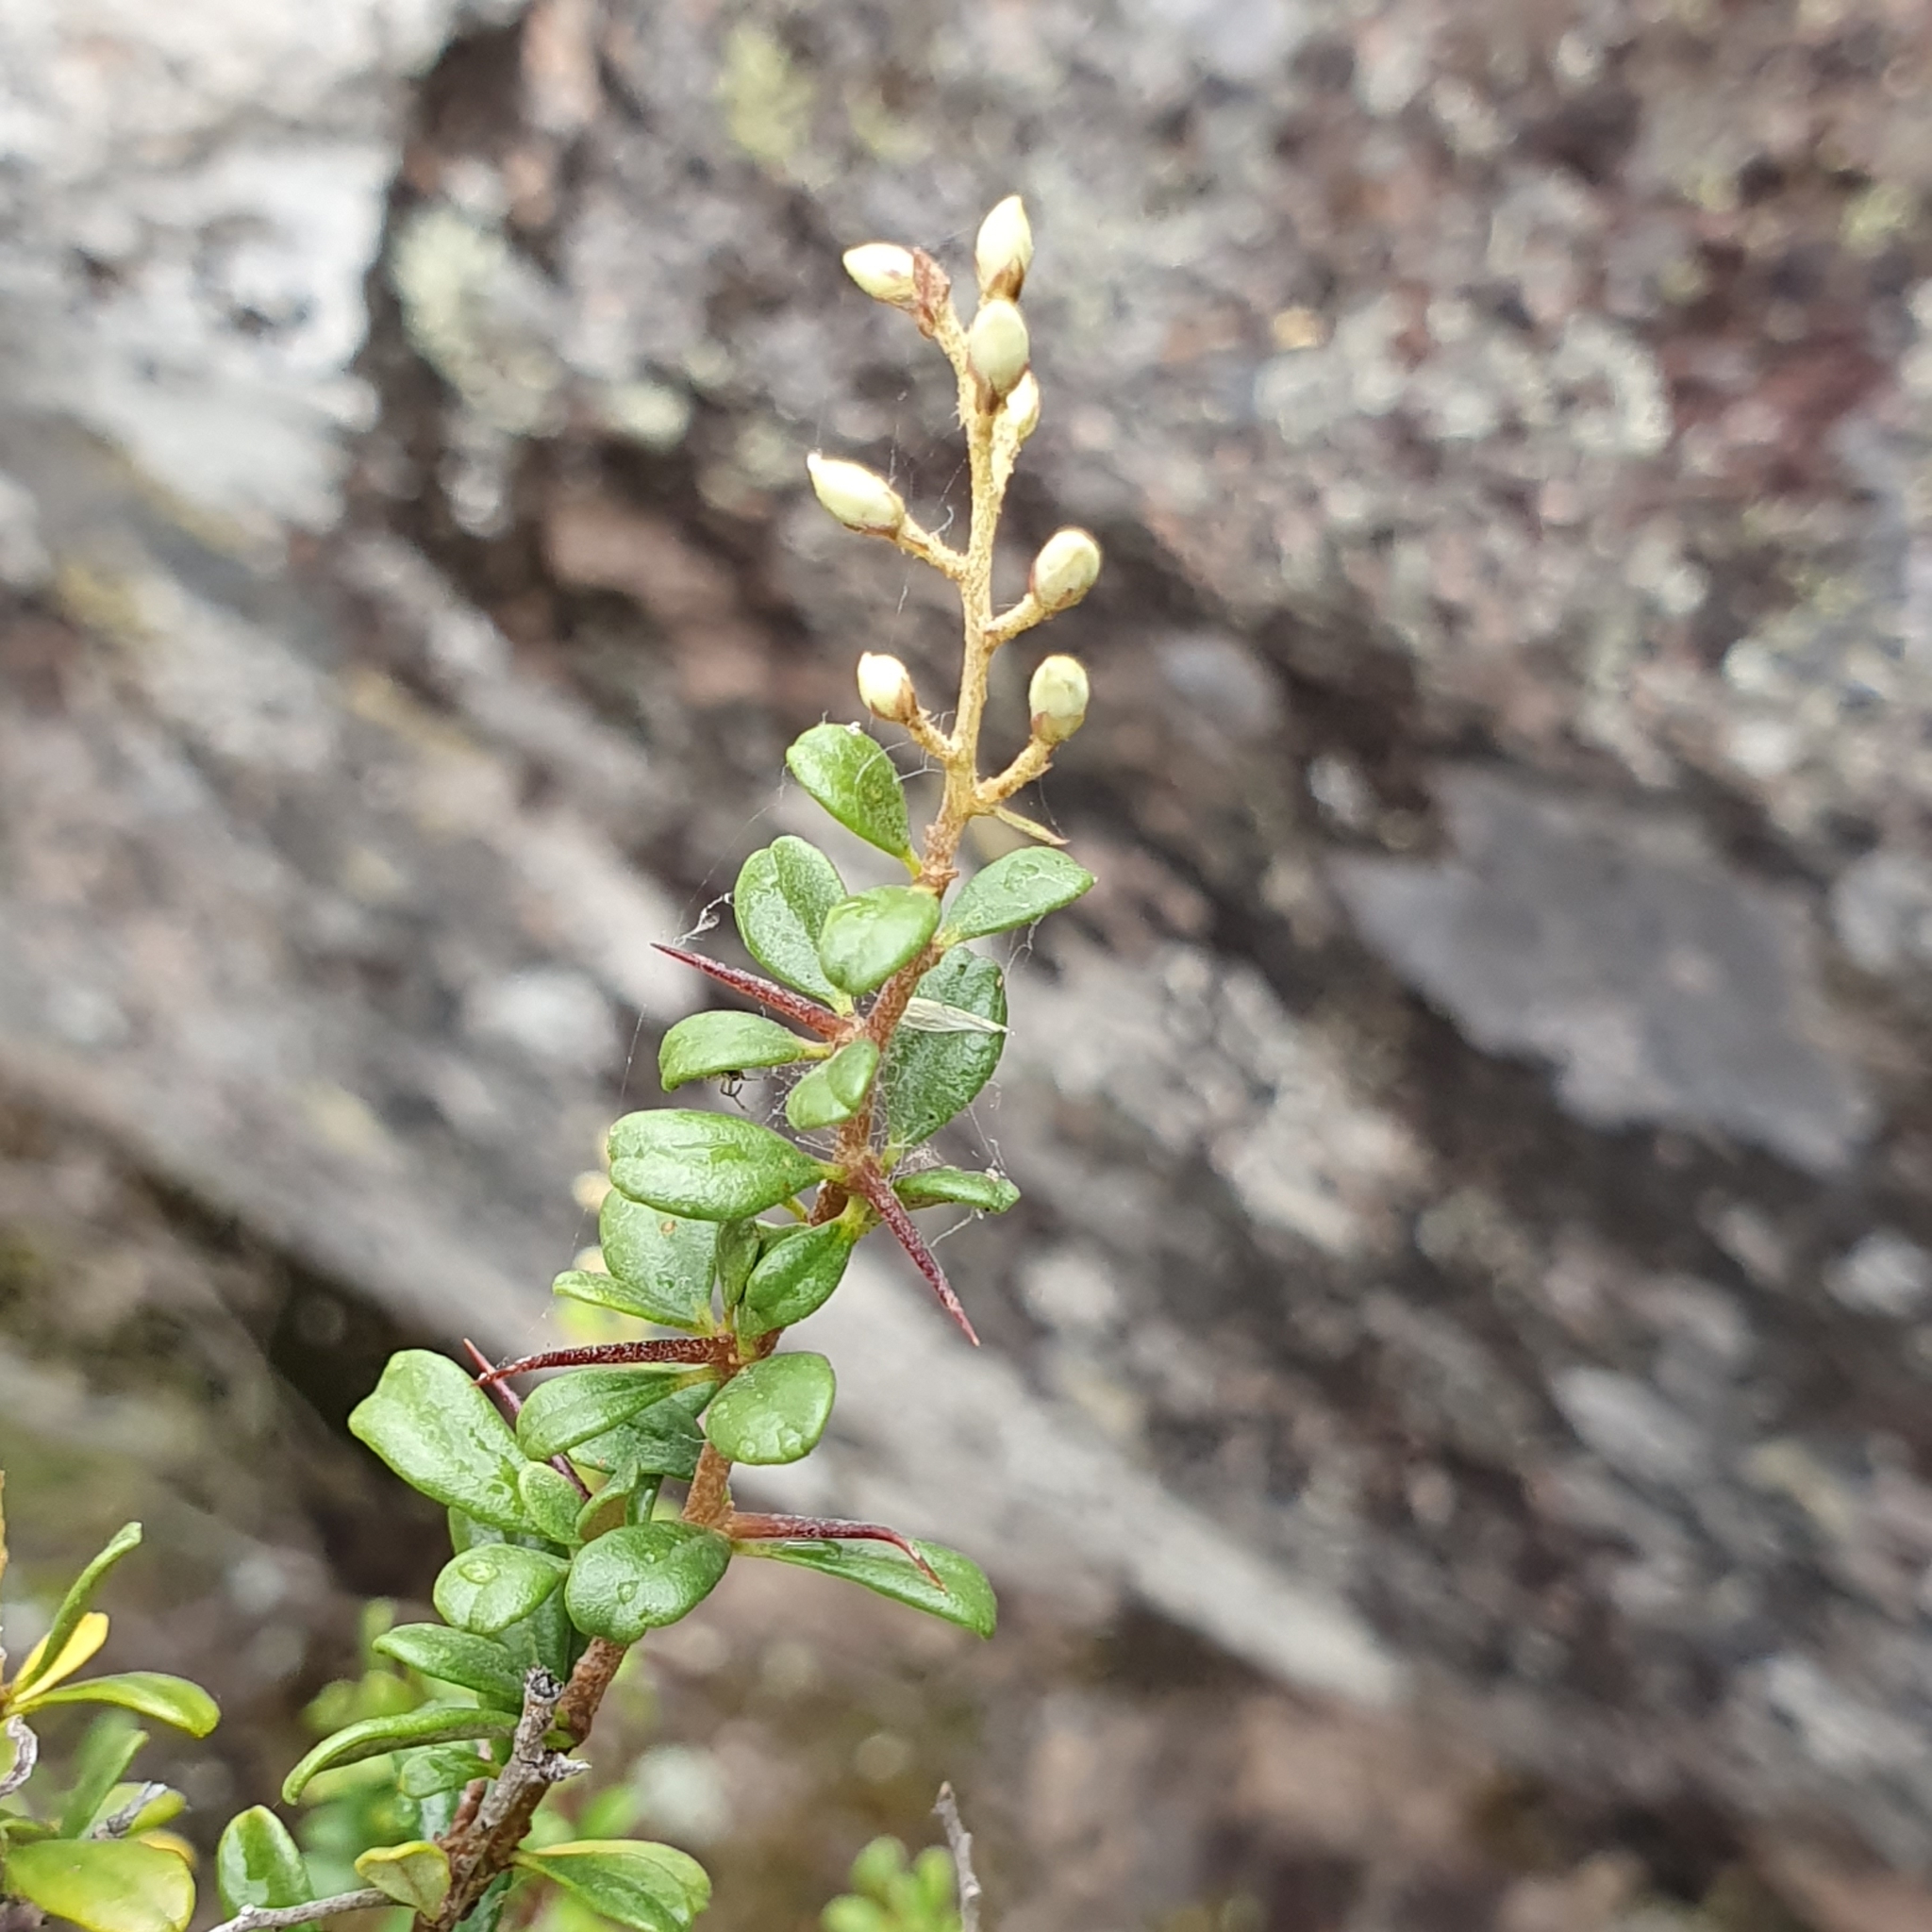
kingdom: Plantae
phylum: Tracheophyta
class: Magnoliopsida
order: Apiales
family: Pittosporaceae
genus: Bursaria
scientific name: Bursaria spinosa
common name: Australian blackthorn
